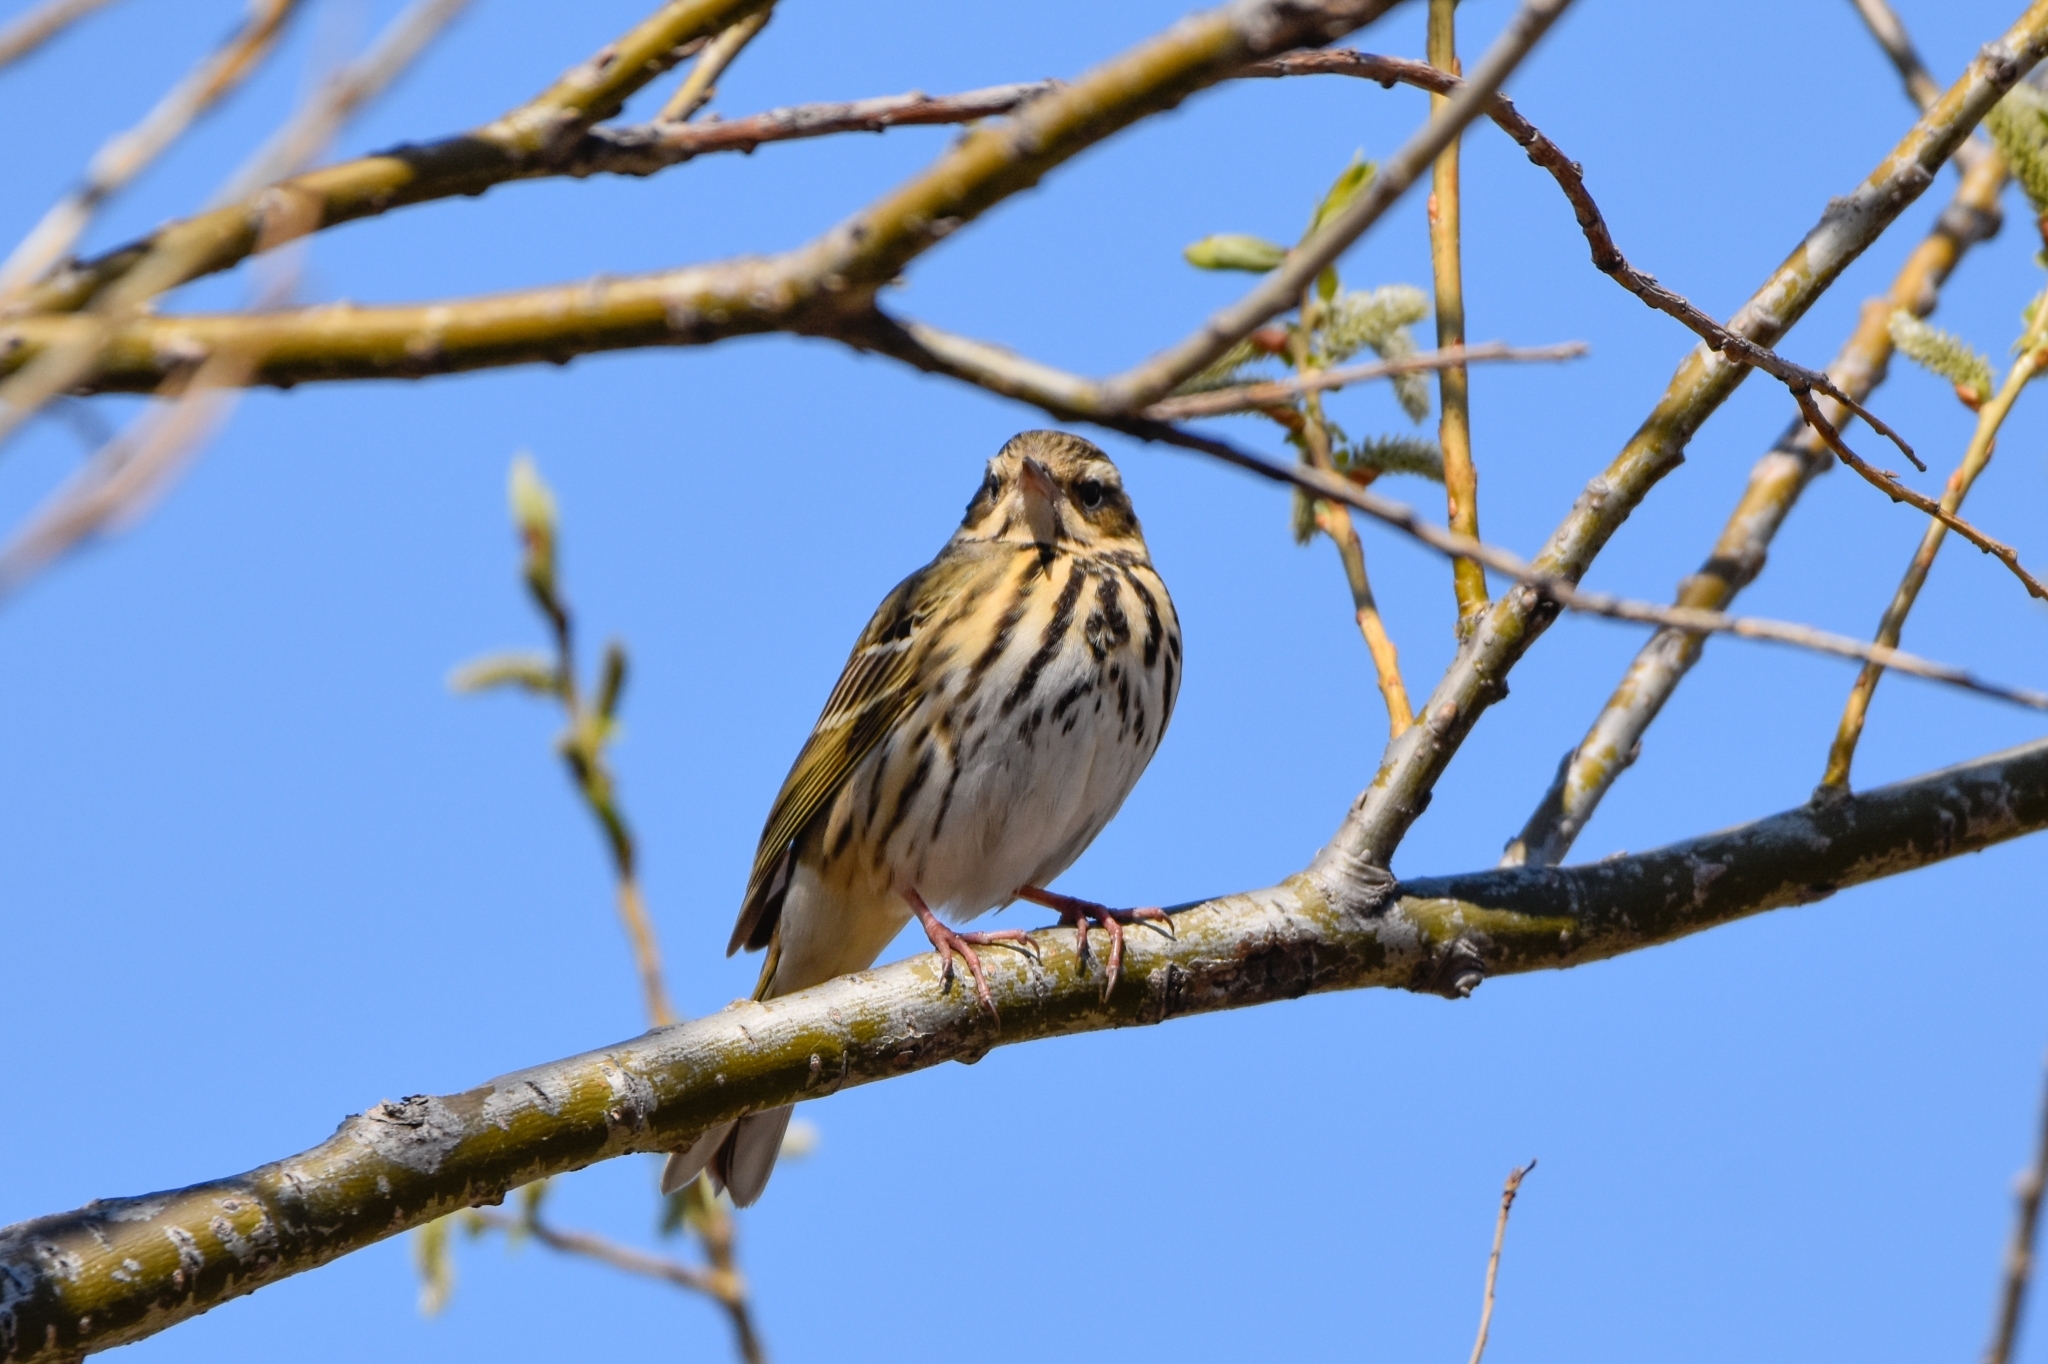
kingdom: Animalia
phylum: Chordata
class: Aves
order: Passeriformes
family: Motacillidae
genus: Anthus
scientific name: Anthus hodgsoni
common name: Olive-backed pipit
